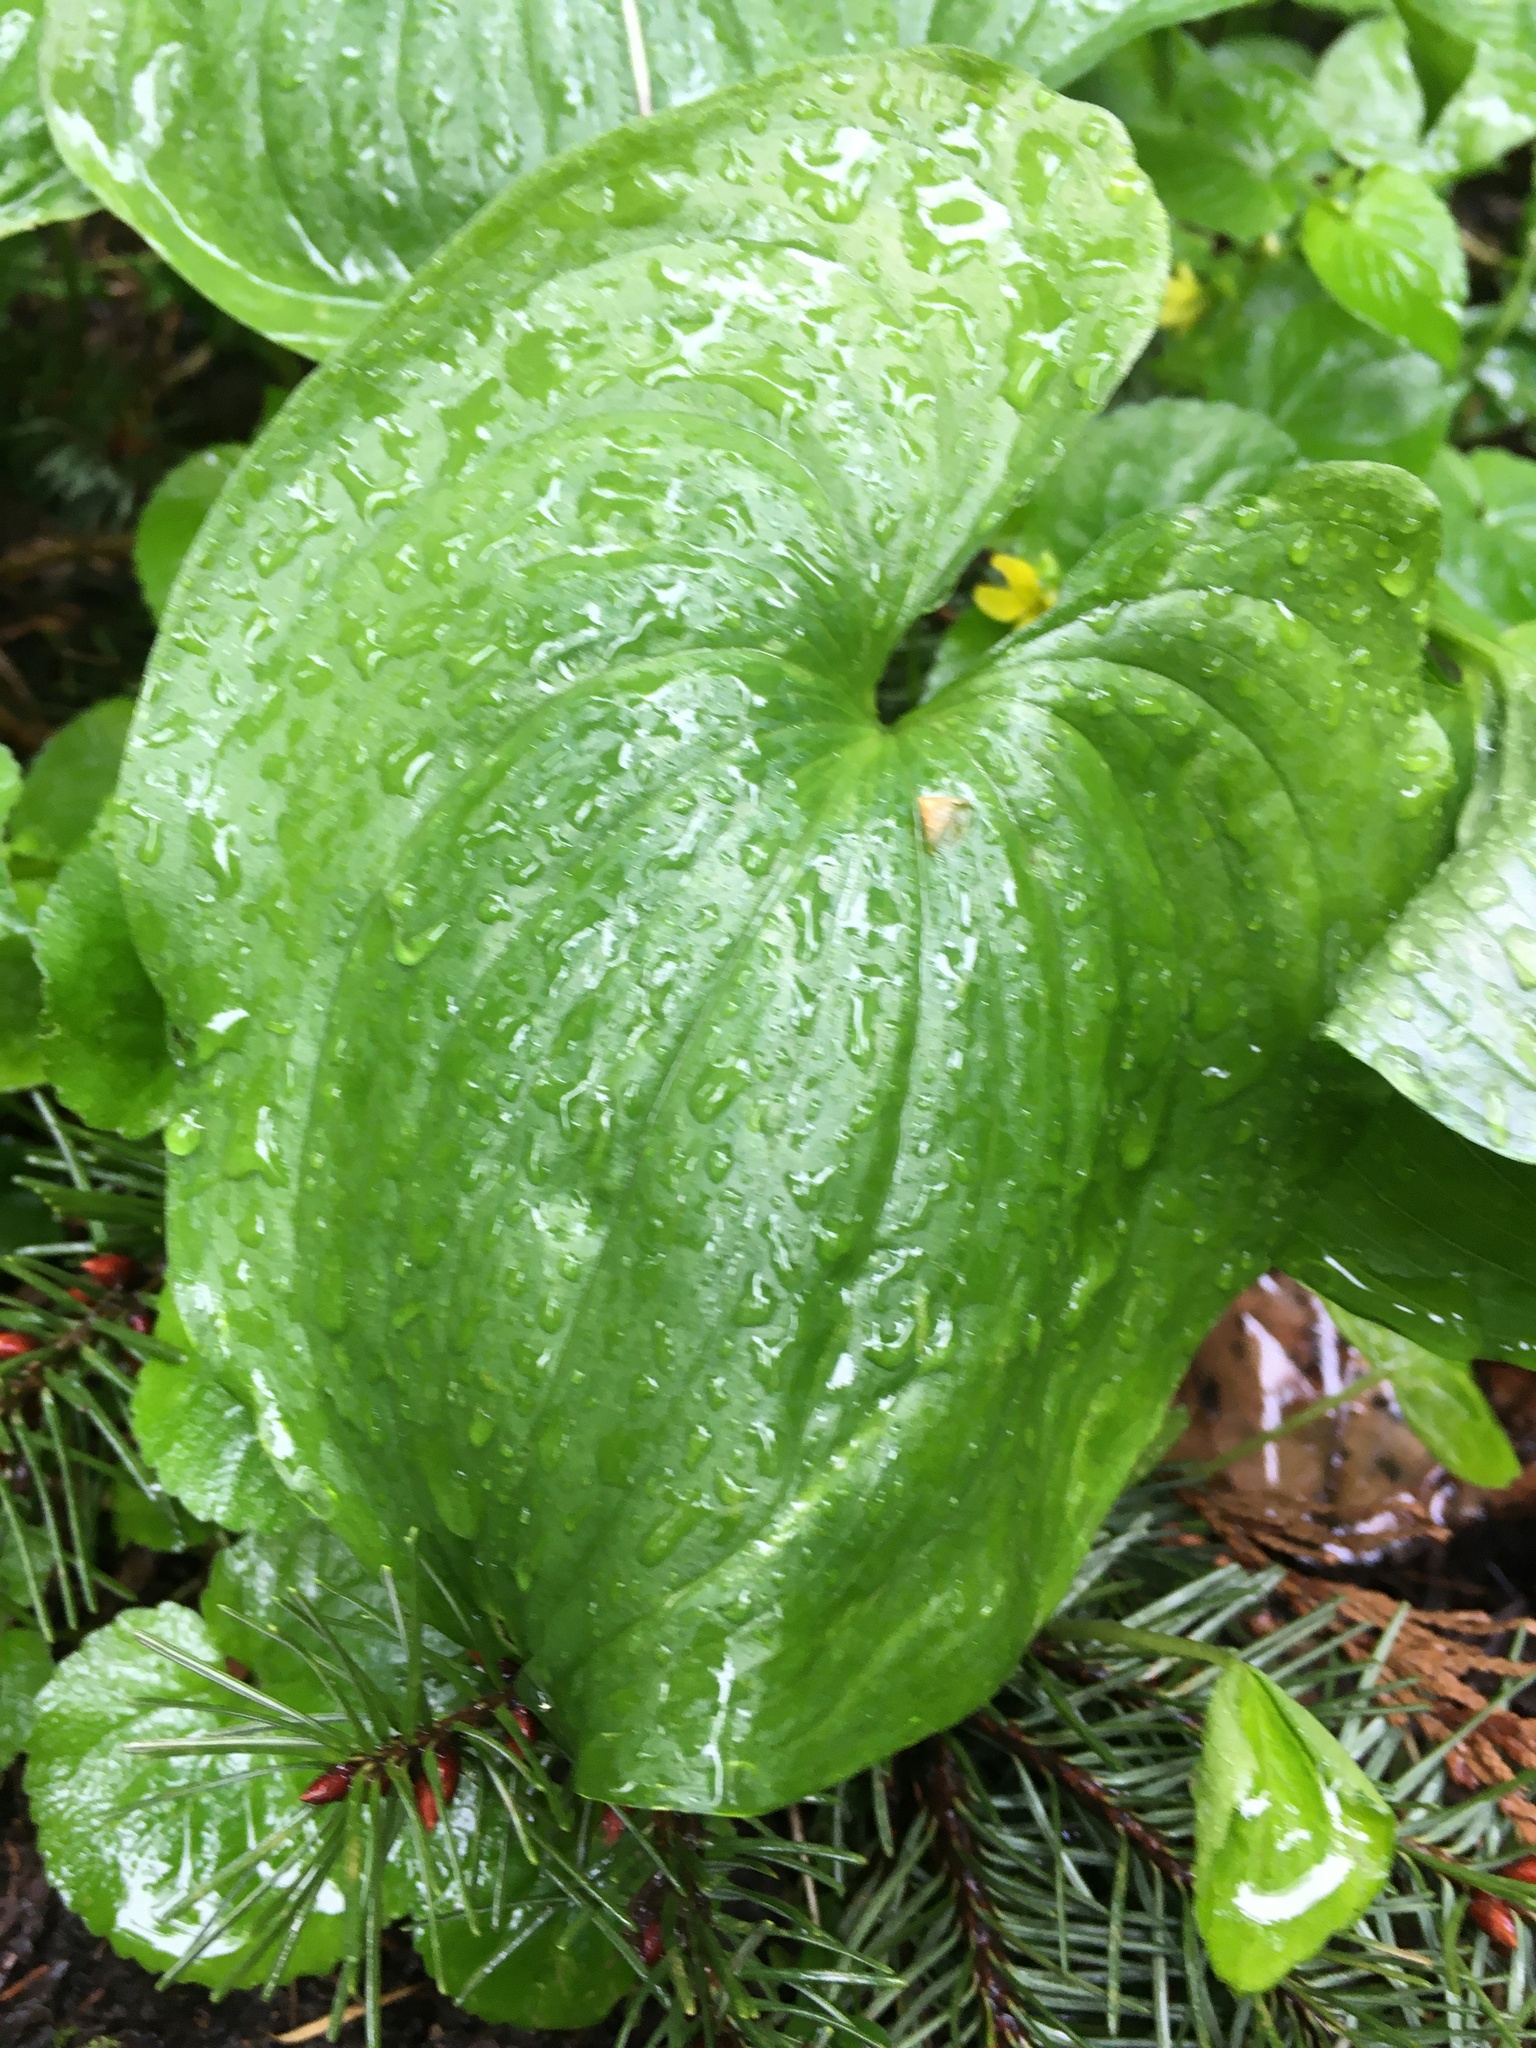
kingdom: Plantae
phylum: Tracheophyta
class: Liliopsida
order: Asparagales
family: Asparagaceae
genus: Maianthemum
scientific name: Maianthemum dilatatum
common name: False lily-of-the-valley
